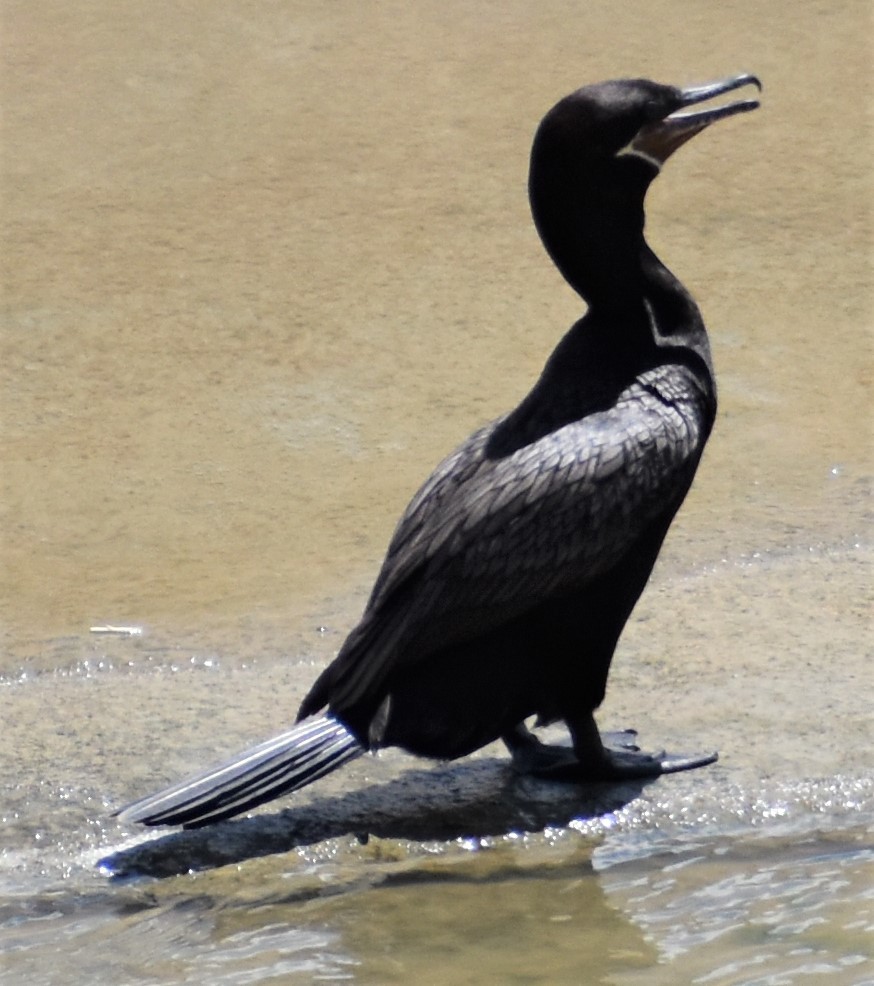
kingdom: Animalia
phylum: Chordata
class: Aves
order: Suliformes
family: Phalacrocoracidae
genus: Phalacrocorax
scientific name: Phalacrocorax brasilianus
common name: Neotropic cormorant
